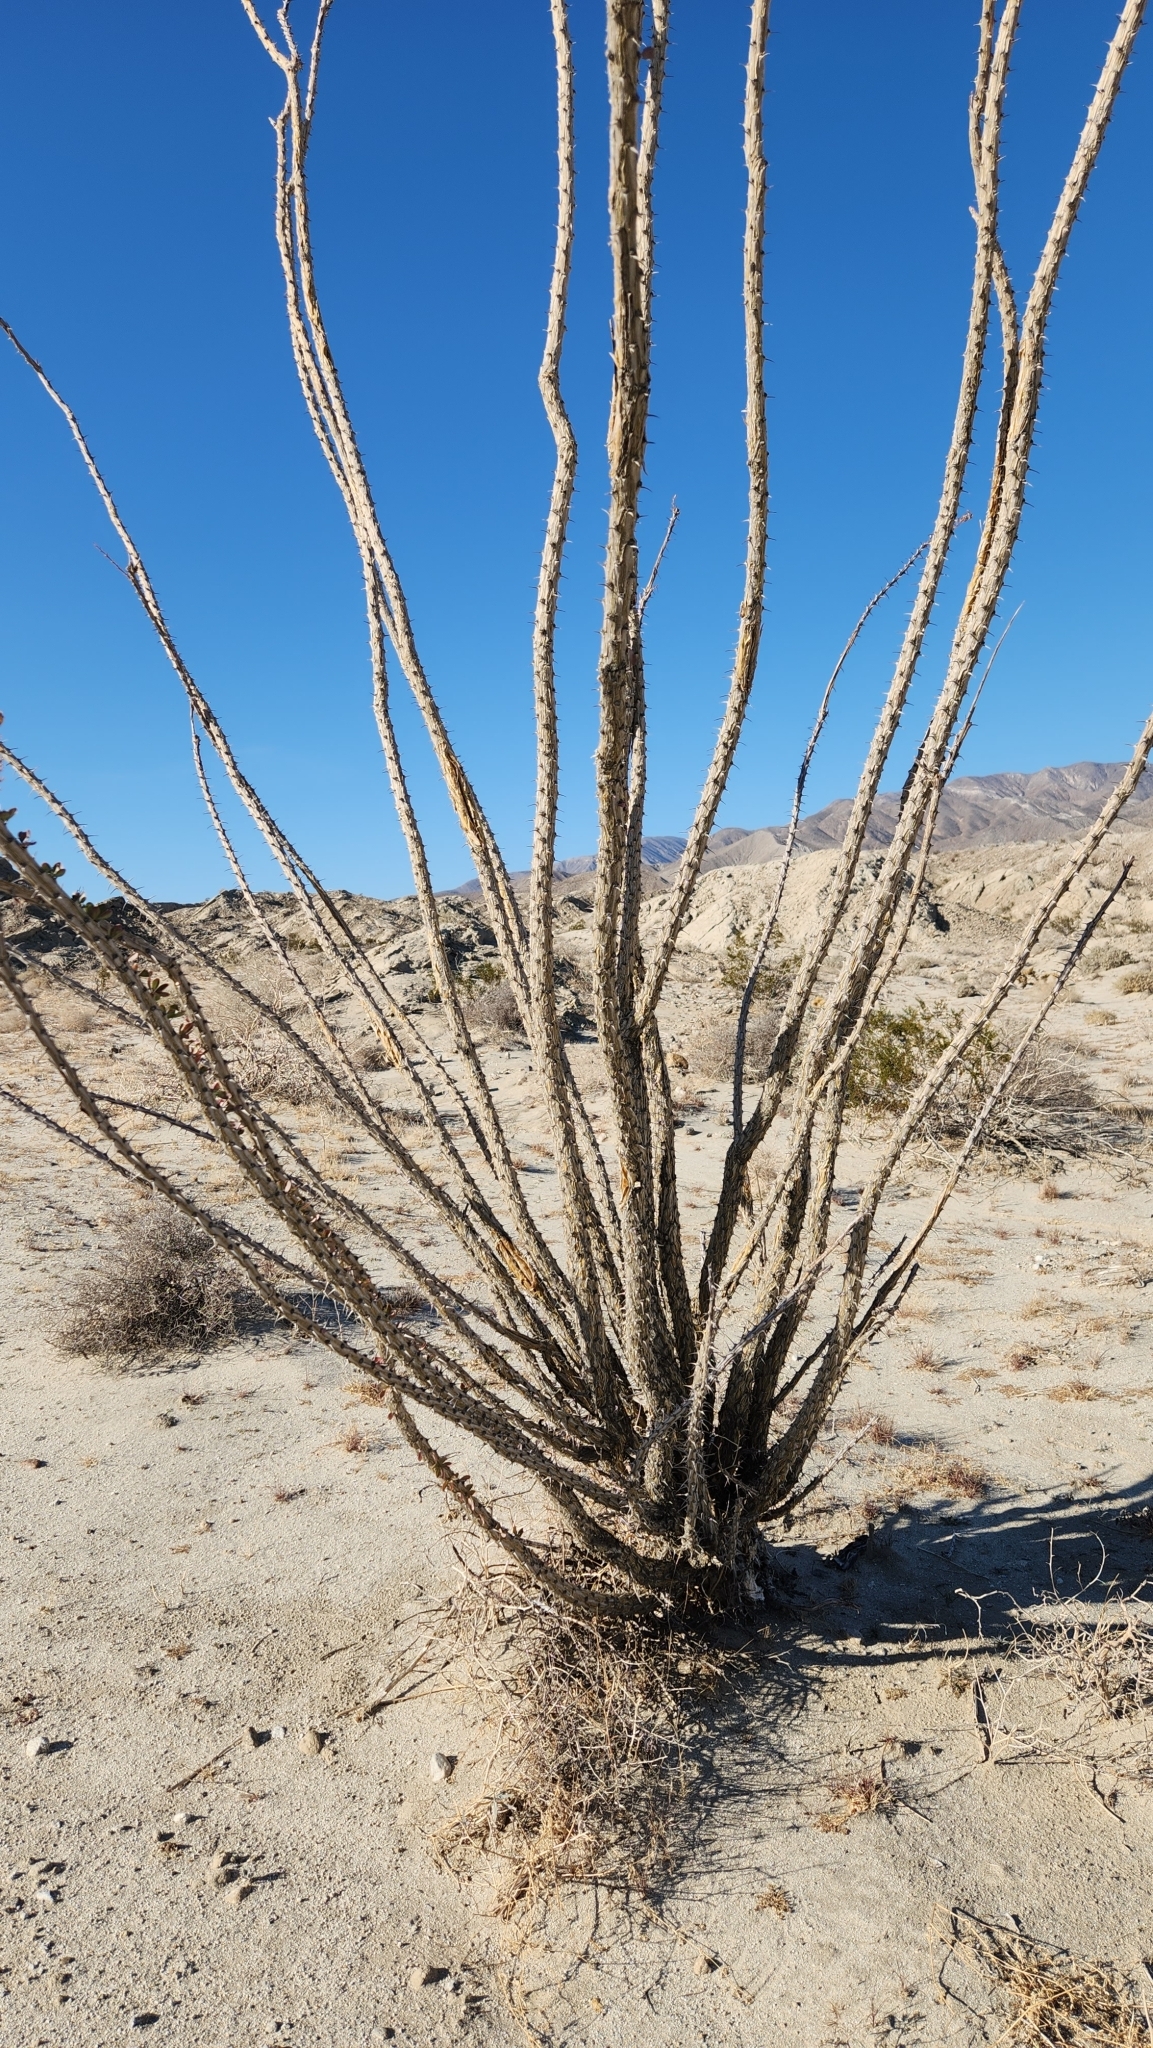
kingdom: Plantae
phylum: Tracheophyta
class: Magnoliopsida
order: Ericales
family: Fouquieriaceae
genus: Fouquieria
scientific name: Fouquieria splendens
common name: Vine-cactus
